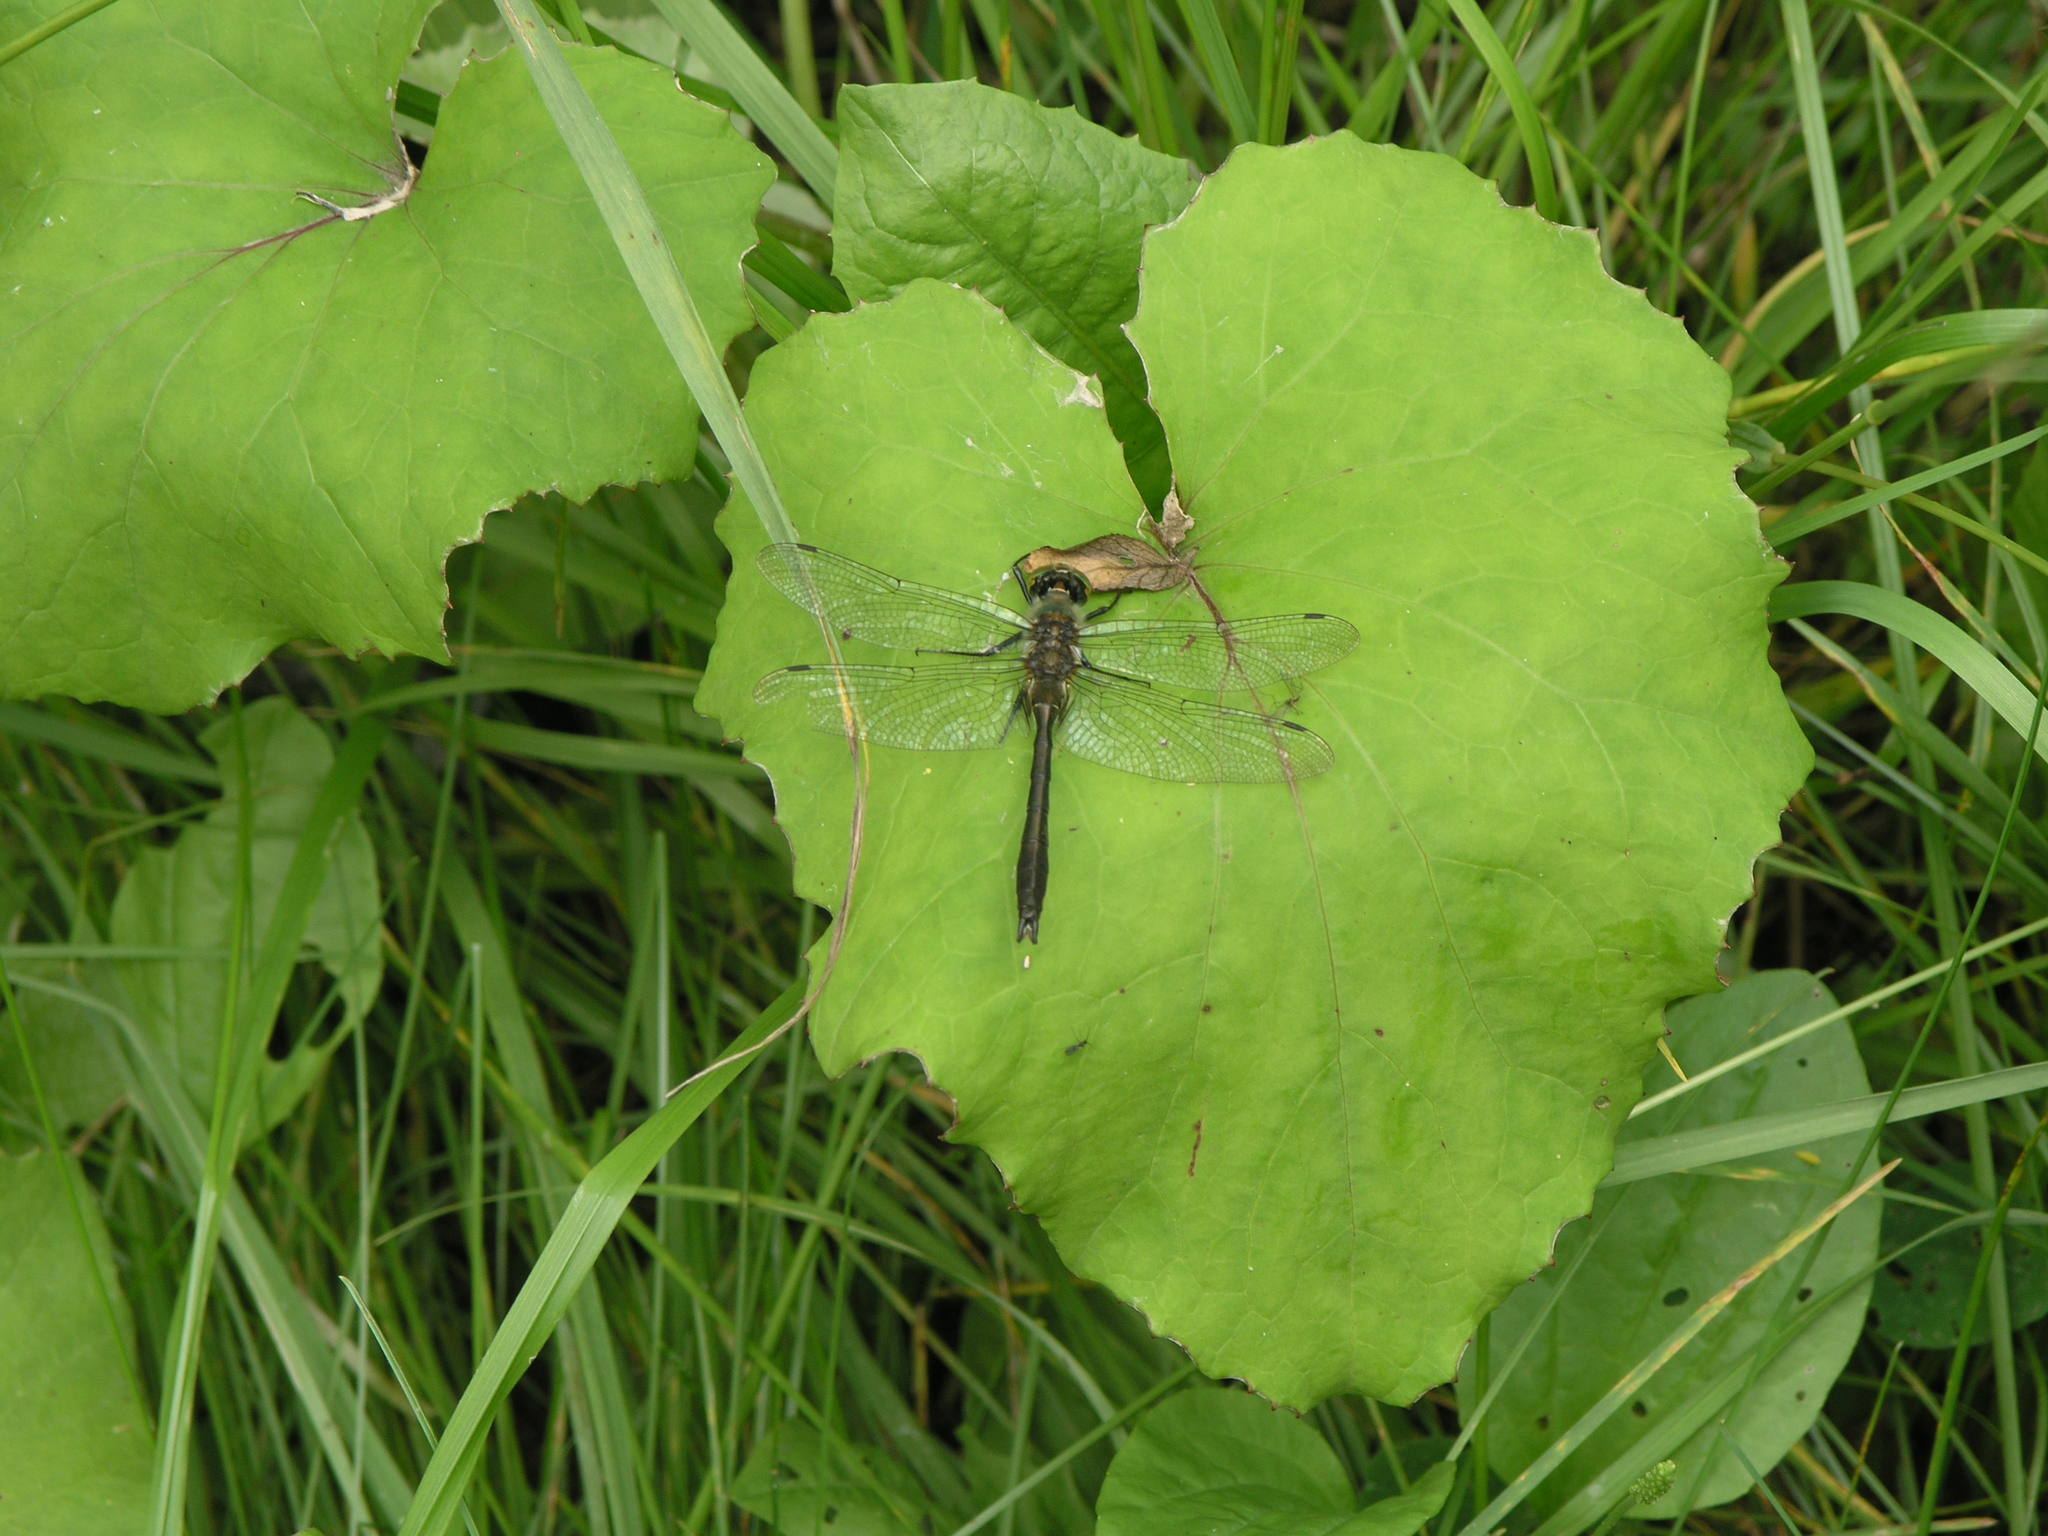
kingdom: Plantae
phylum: Tracheophyta
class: Magnoliopsida
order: Asterales
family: Asteraceae
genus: Tussilago
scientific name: Tussilago farfara
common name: Coltsfoot
